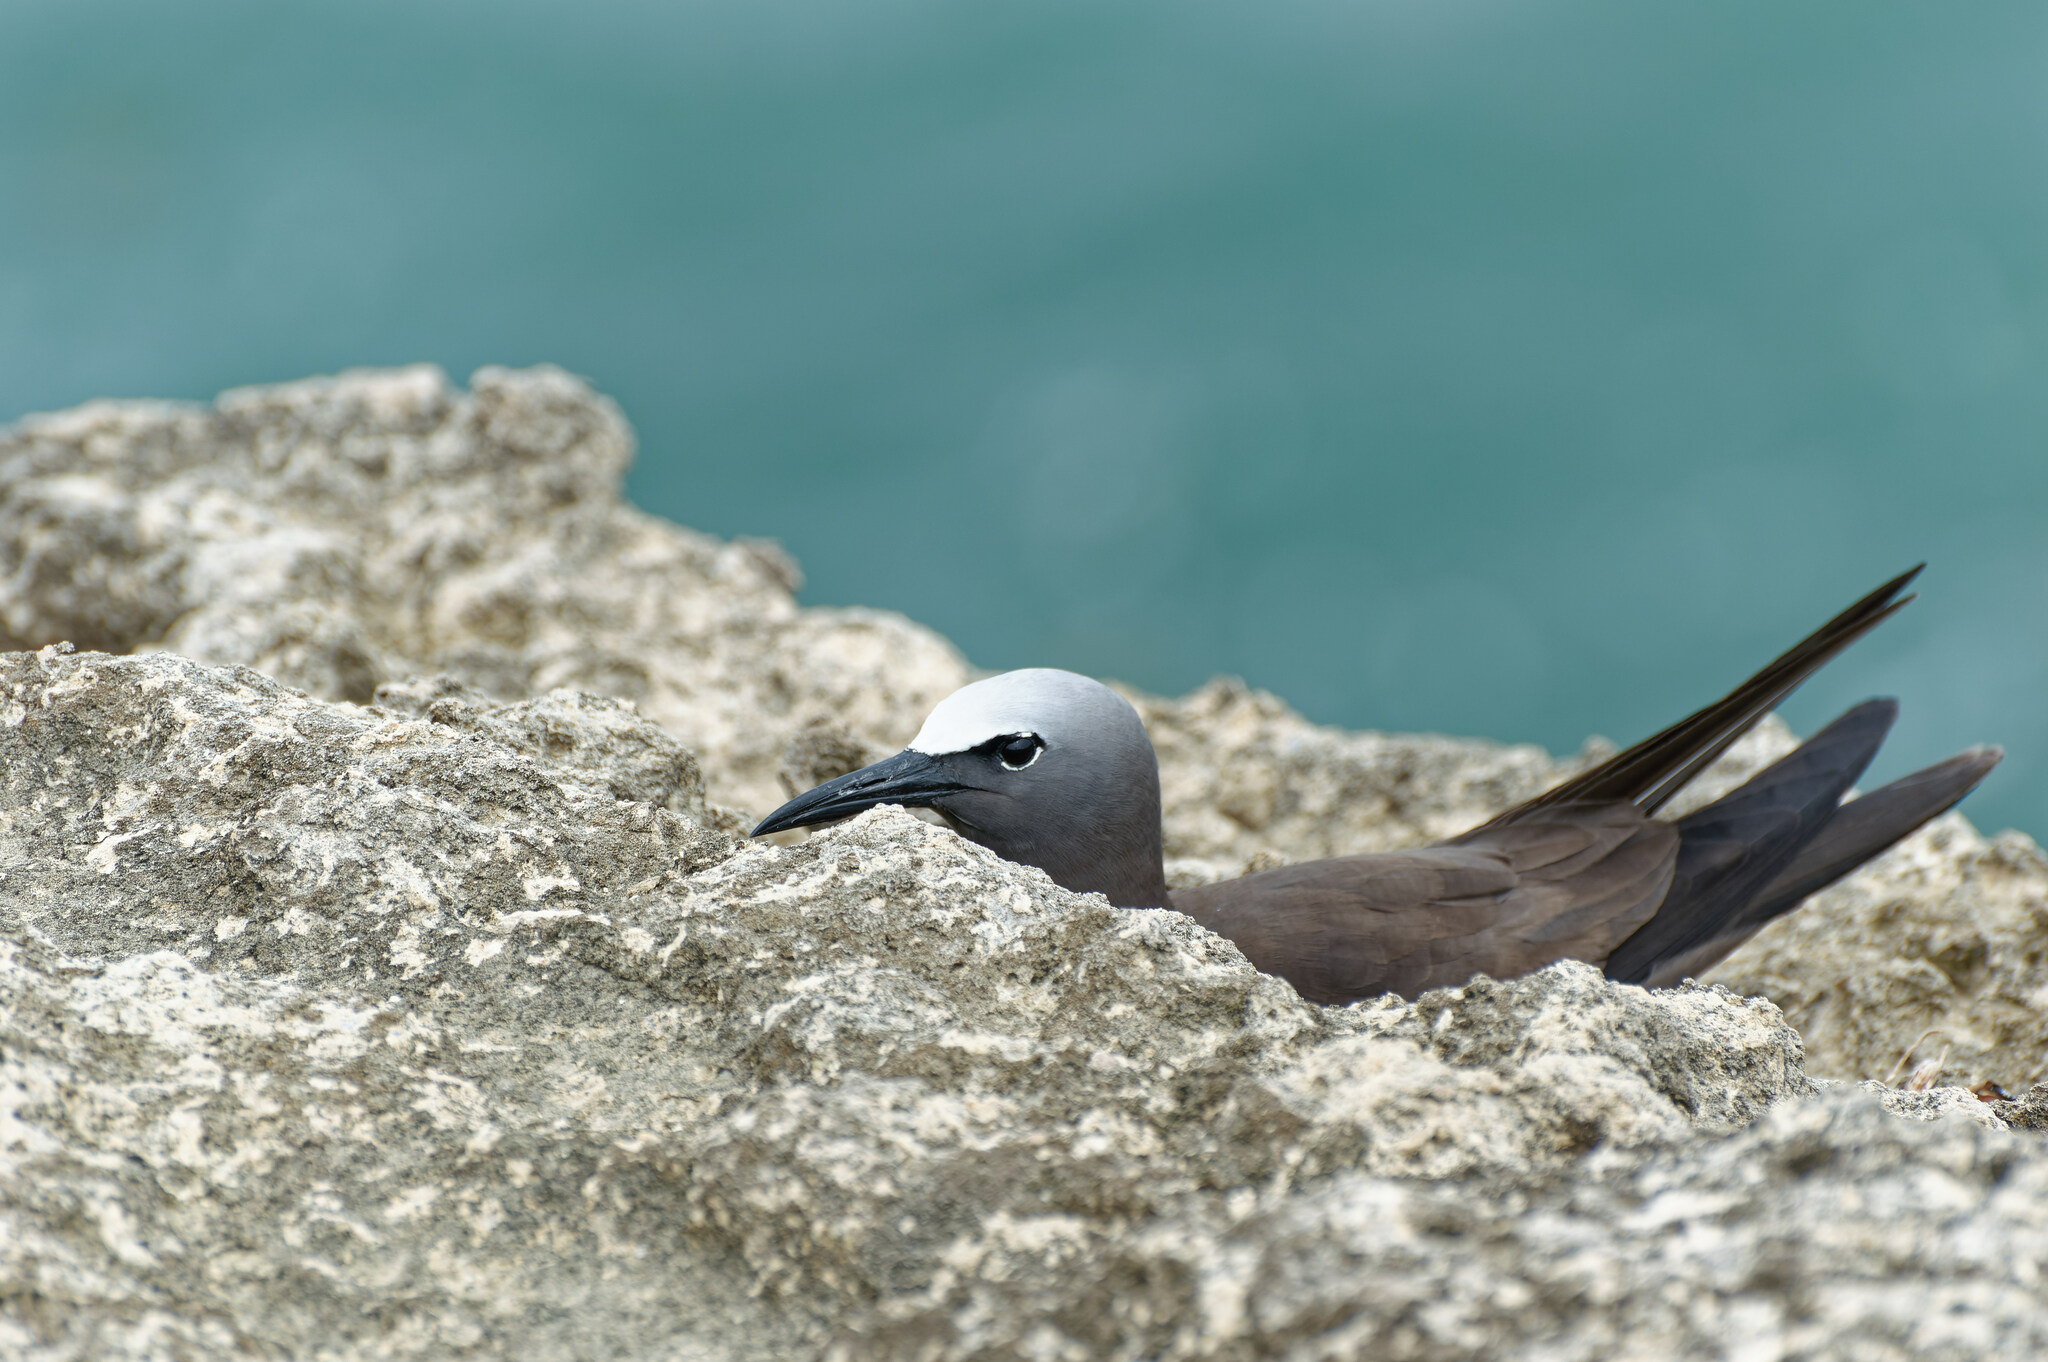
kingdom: Animalia
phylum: Chordata
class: Aves
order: Charadriiformes
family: Laridae
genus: Anous
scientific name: Anous stolidus
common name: Brown noddy
